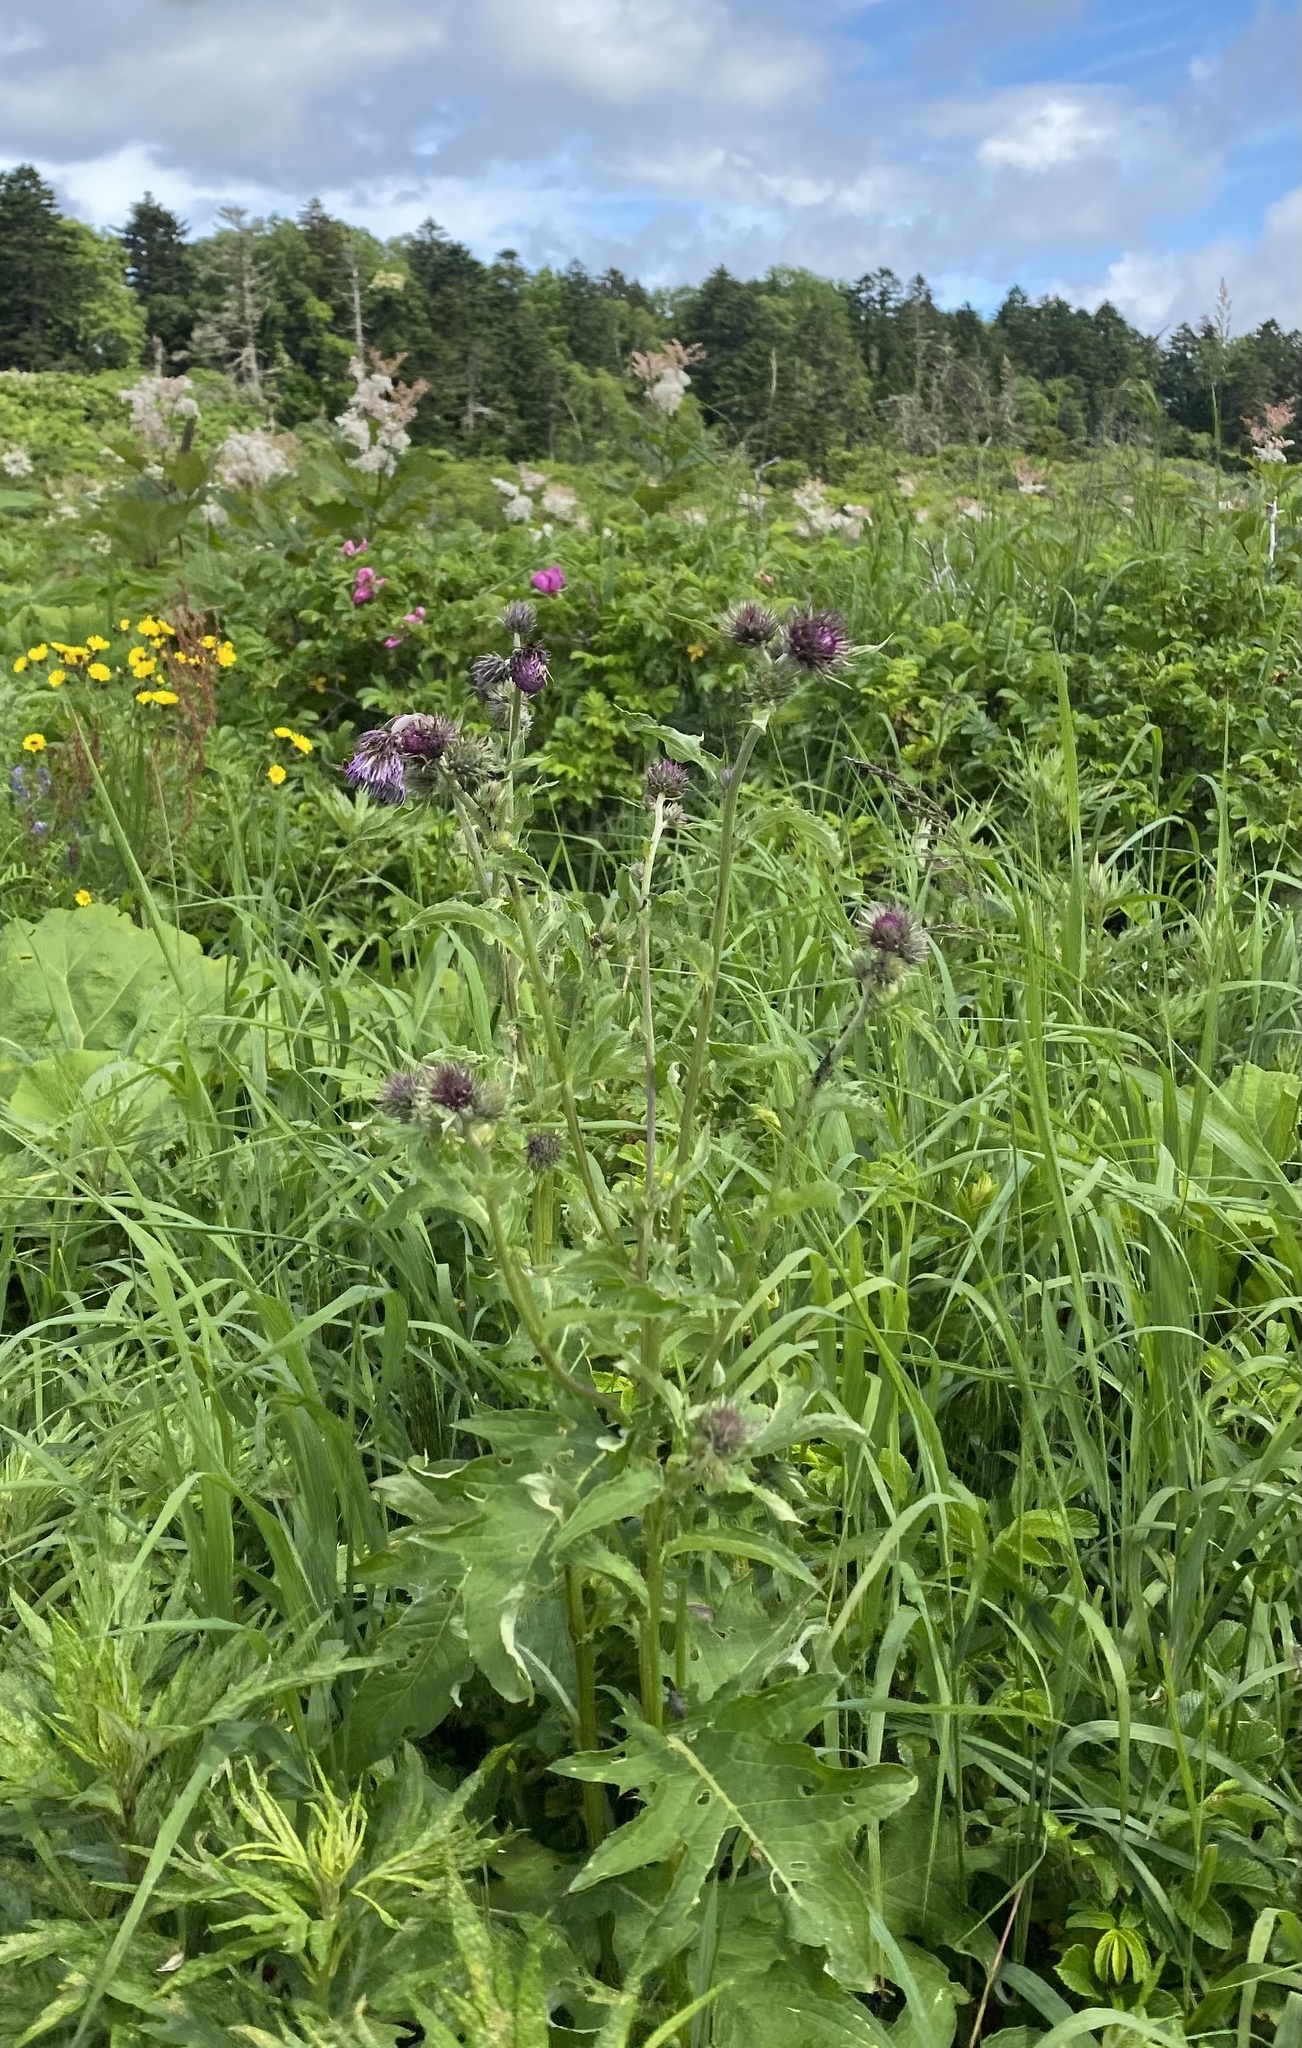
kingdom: Plantae
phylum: Tracheophyta
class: Magnoliopsida
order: Asterales
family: Asteraceae
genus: Cirsium
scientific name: Cirsium kamtschaticum
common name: Kamchatka thistle
